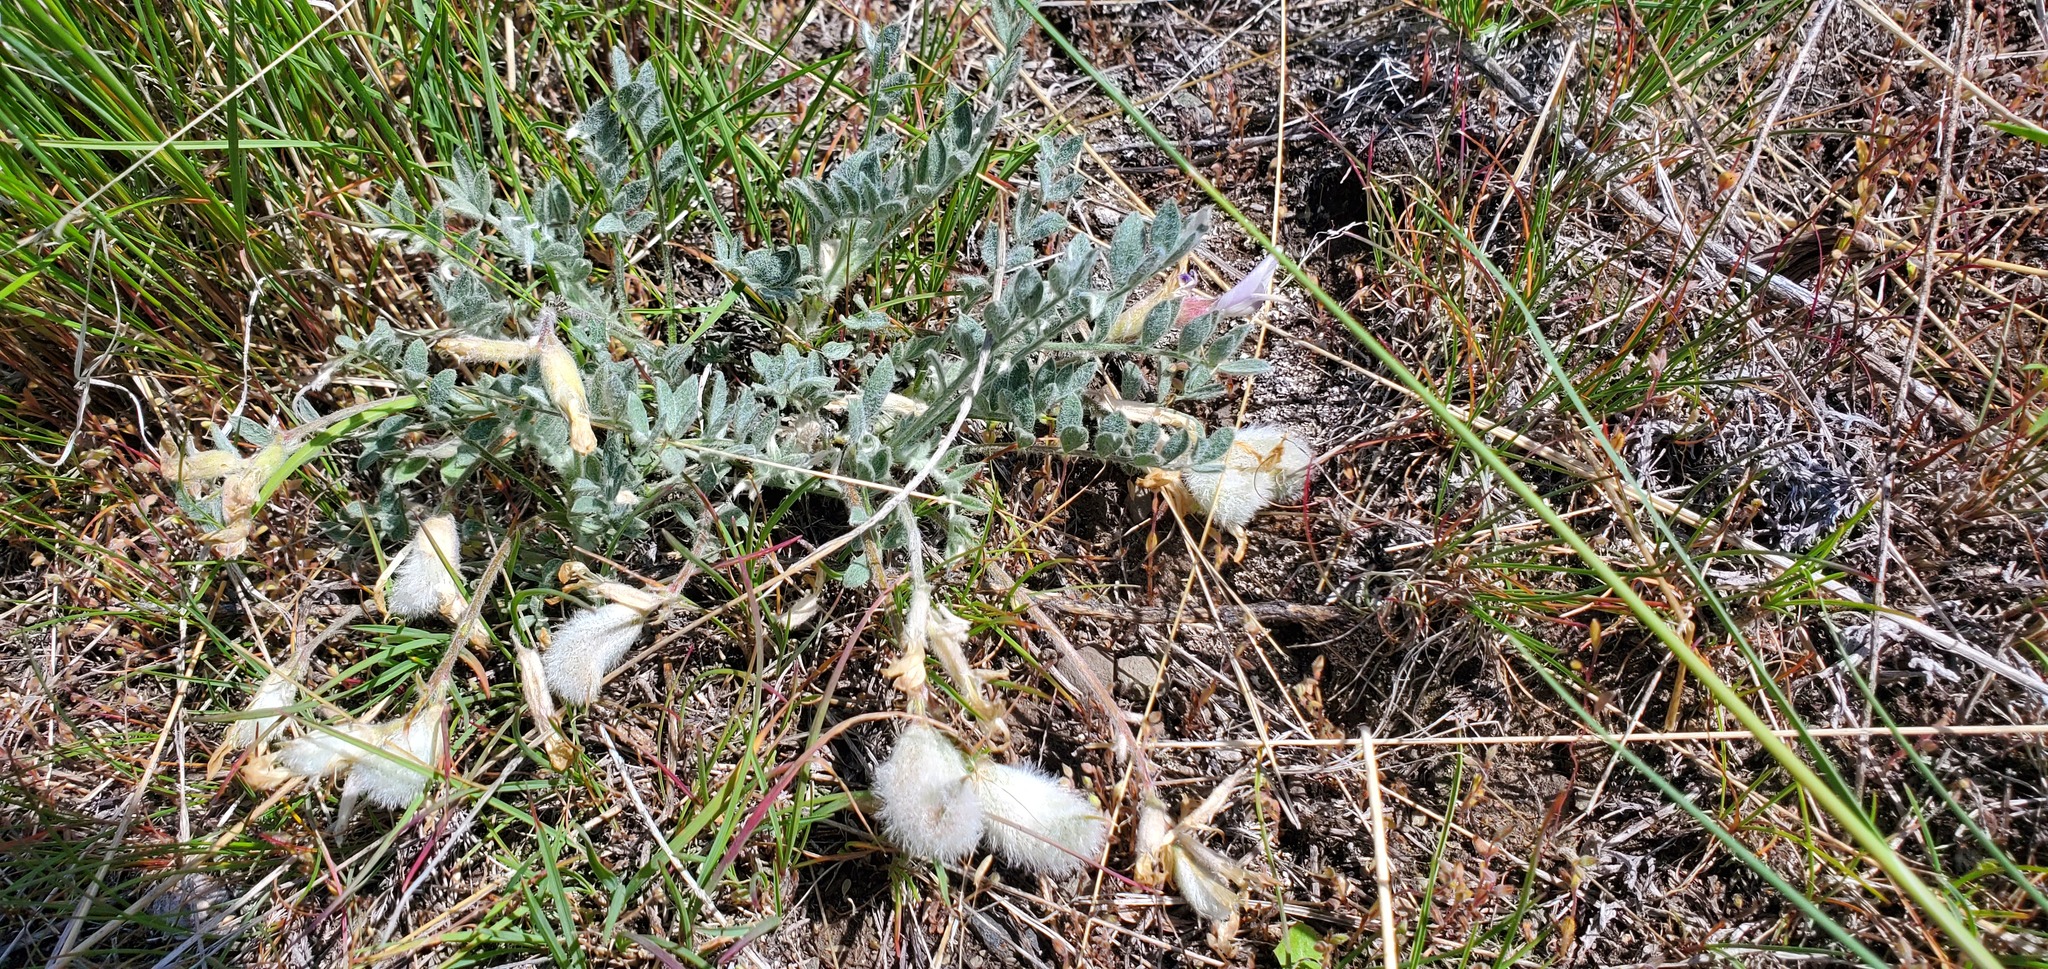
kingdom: Plantae
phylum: Tracheophyta
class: Magnoliopsida
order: Fabales
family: Fabaceae
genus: Astragalus
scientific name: Astragalus purshii
